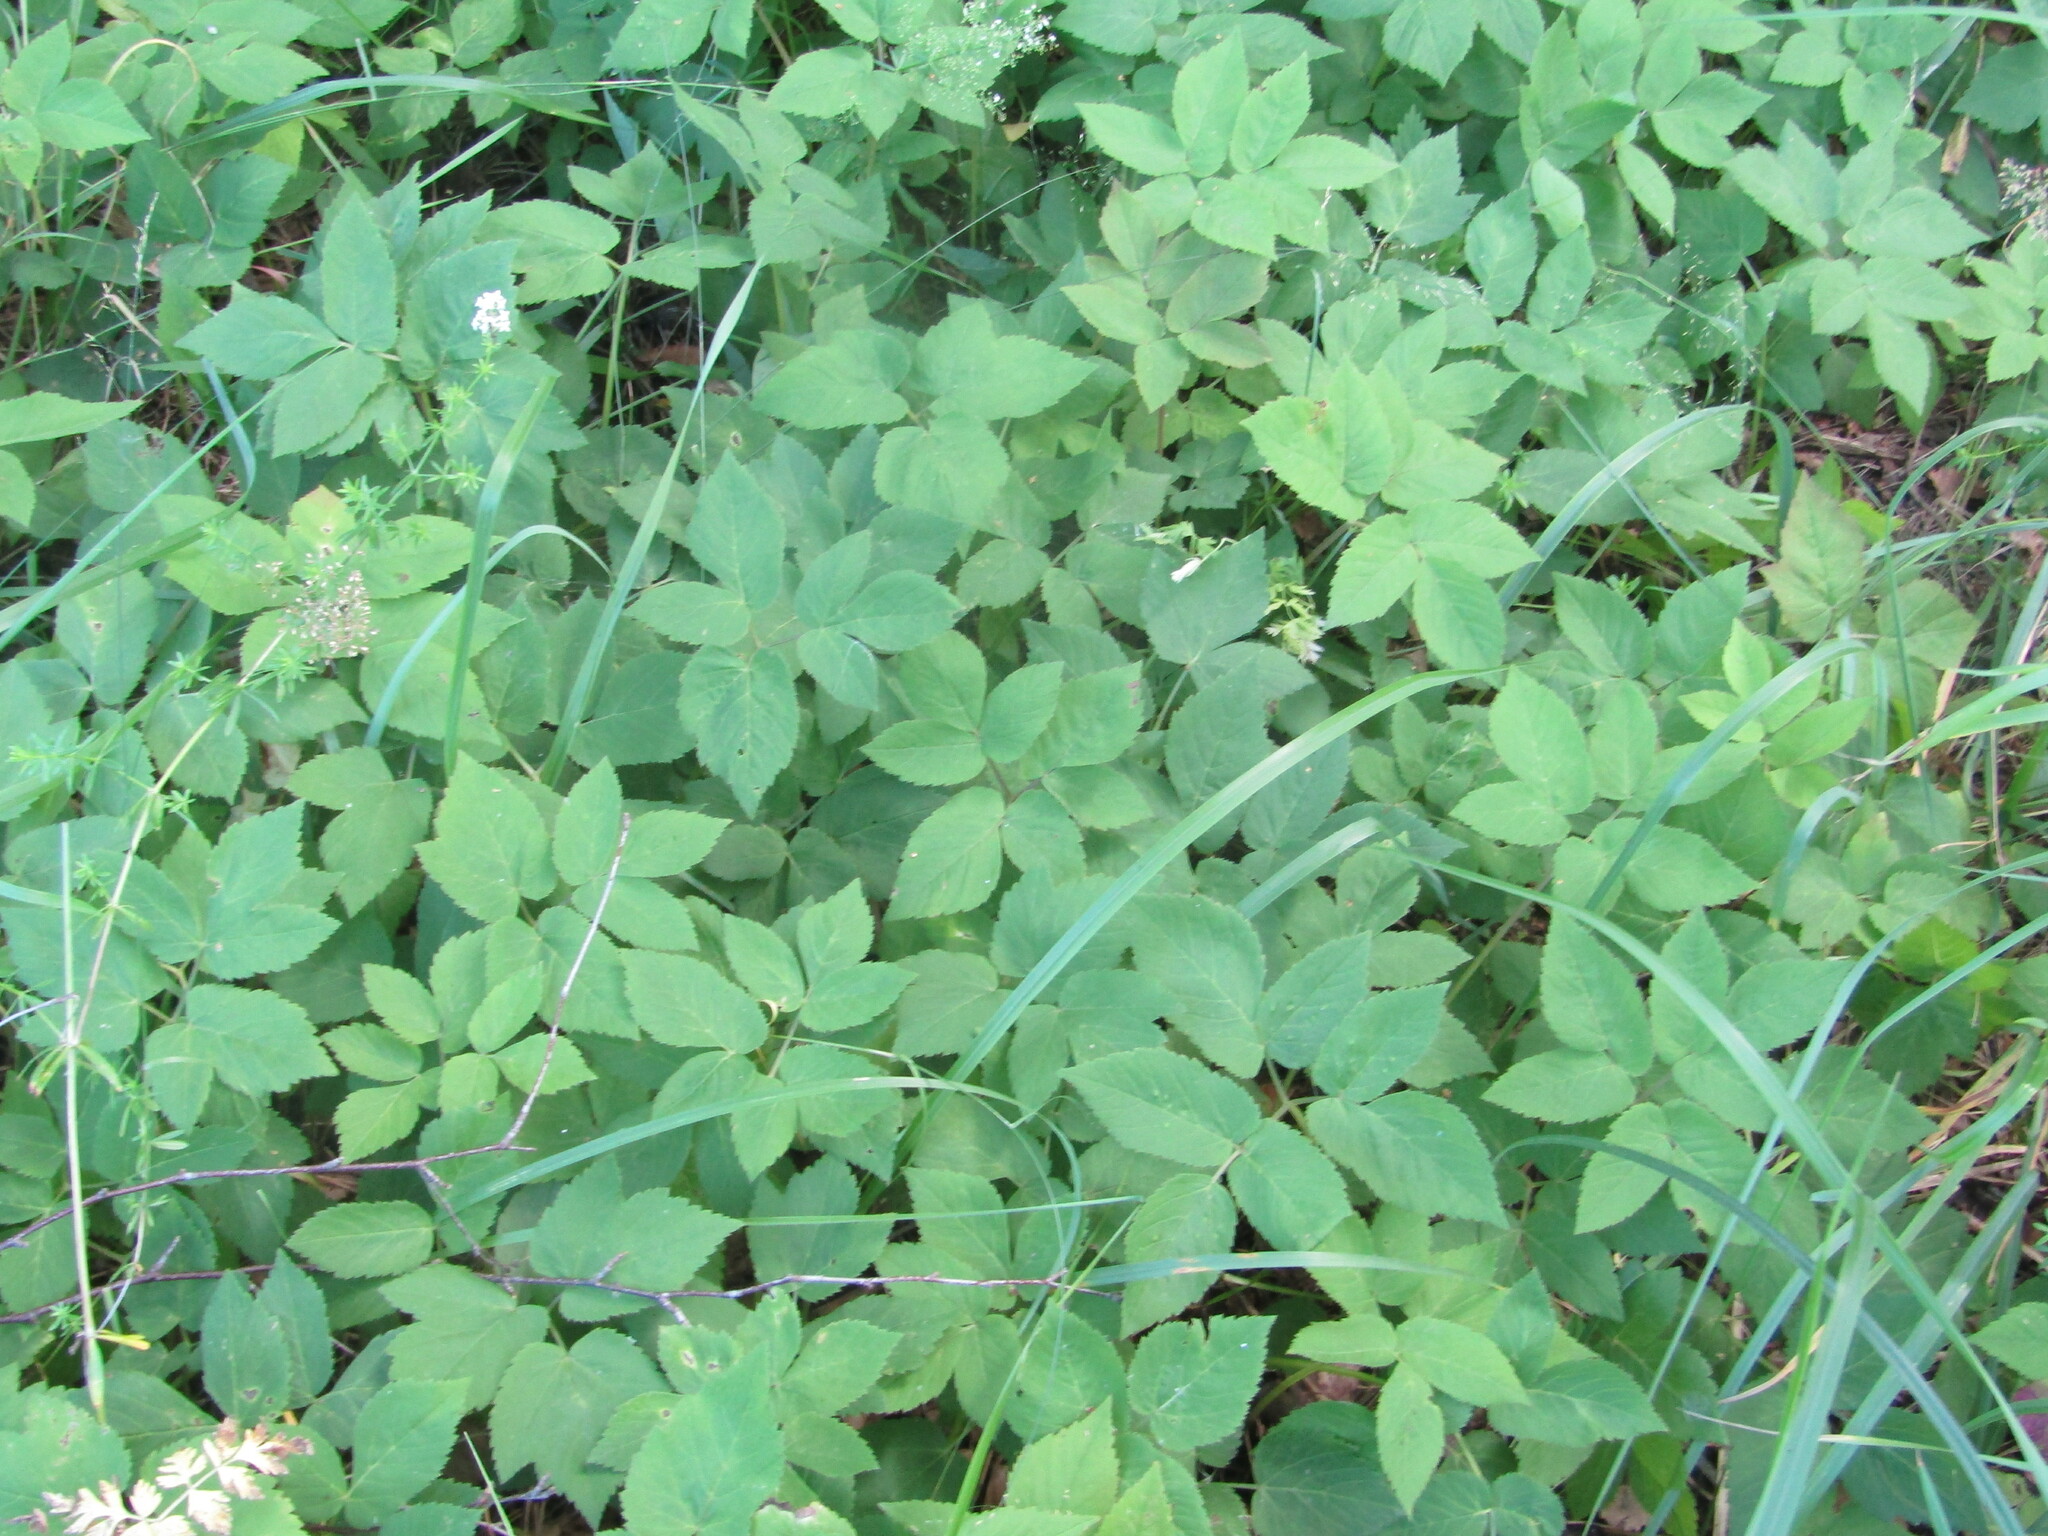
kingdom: Plantae
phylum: Tracheophyta
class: Magnoliopsida
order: Apiales
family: Apiaceae
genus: Aegopodium
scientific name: Aegopodium podagraria
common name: Ground-elder
